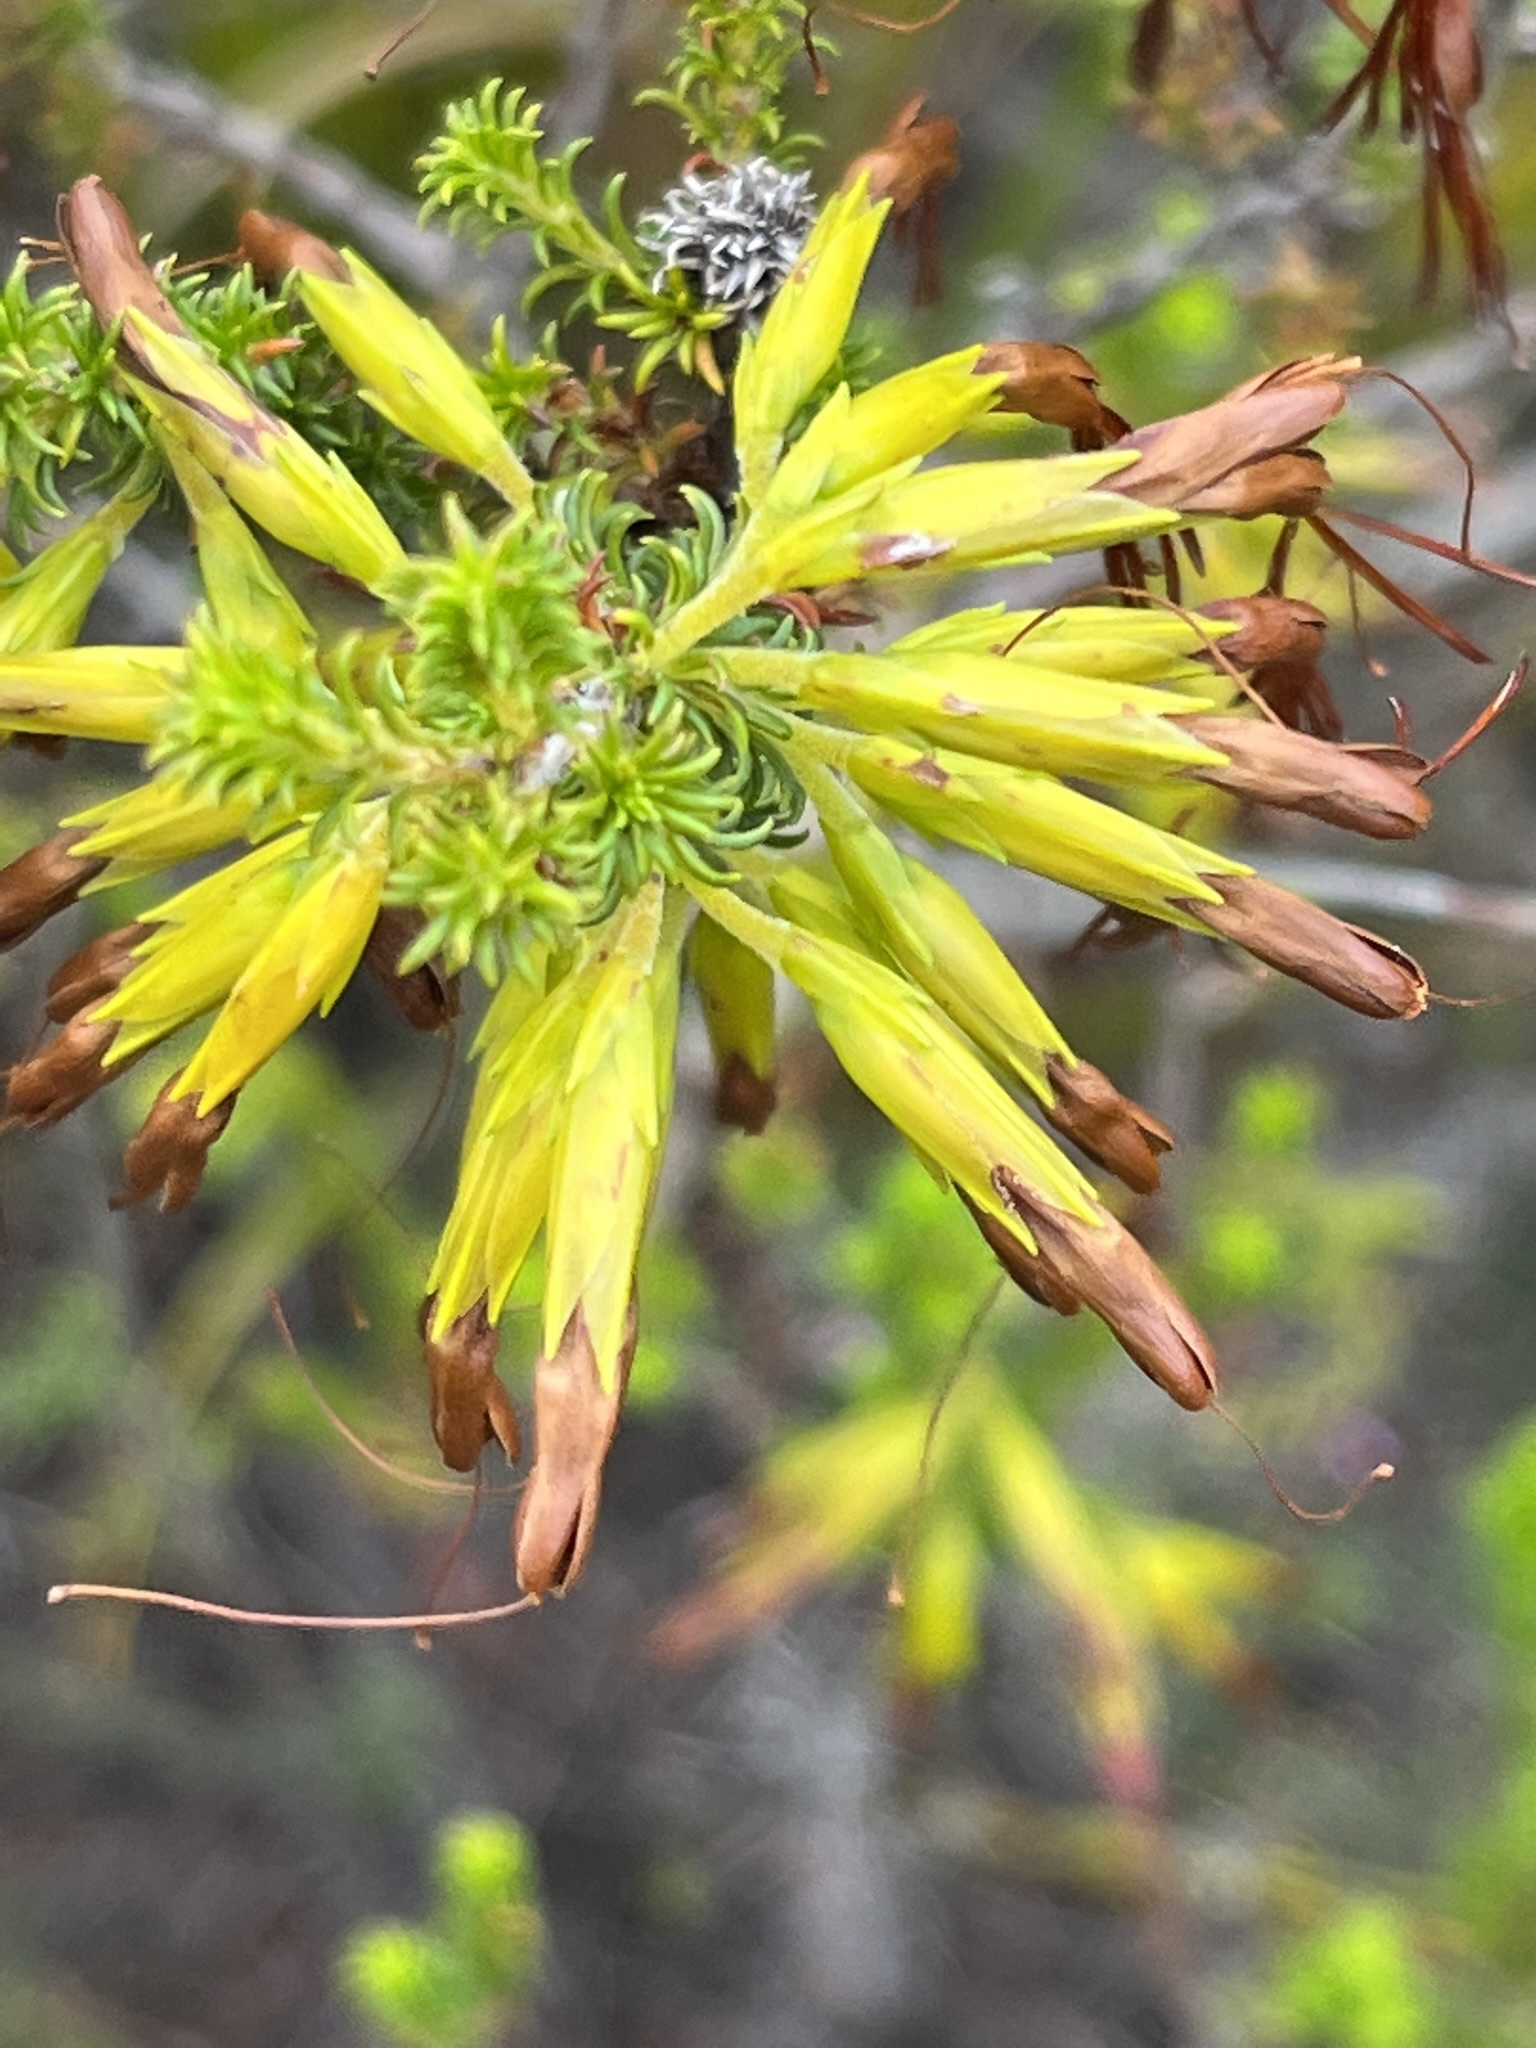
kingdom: Plantae
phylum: Tracheophyta
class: Magnoliopsida
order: Ericales
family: Ericaceae
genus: Erica
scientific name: Erica coccinea
